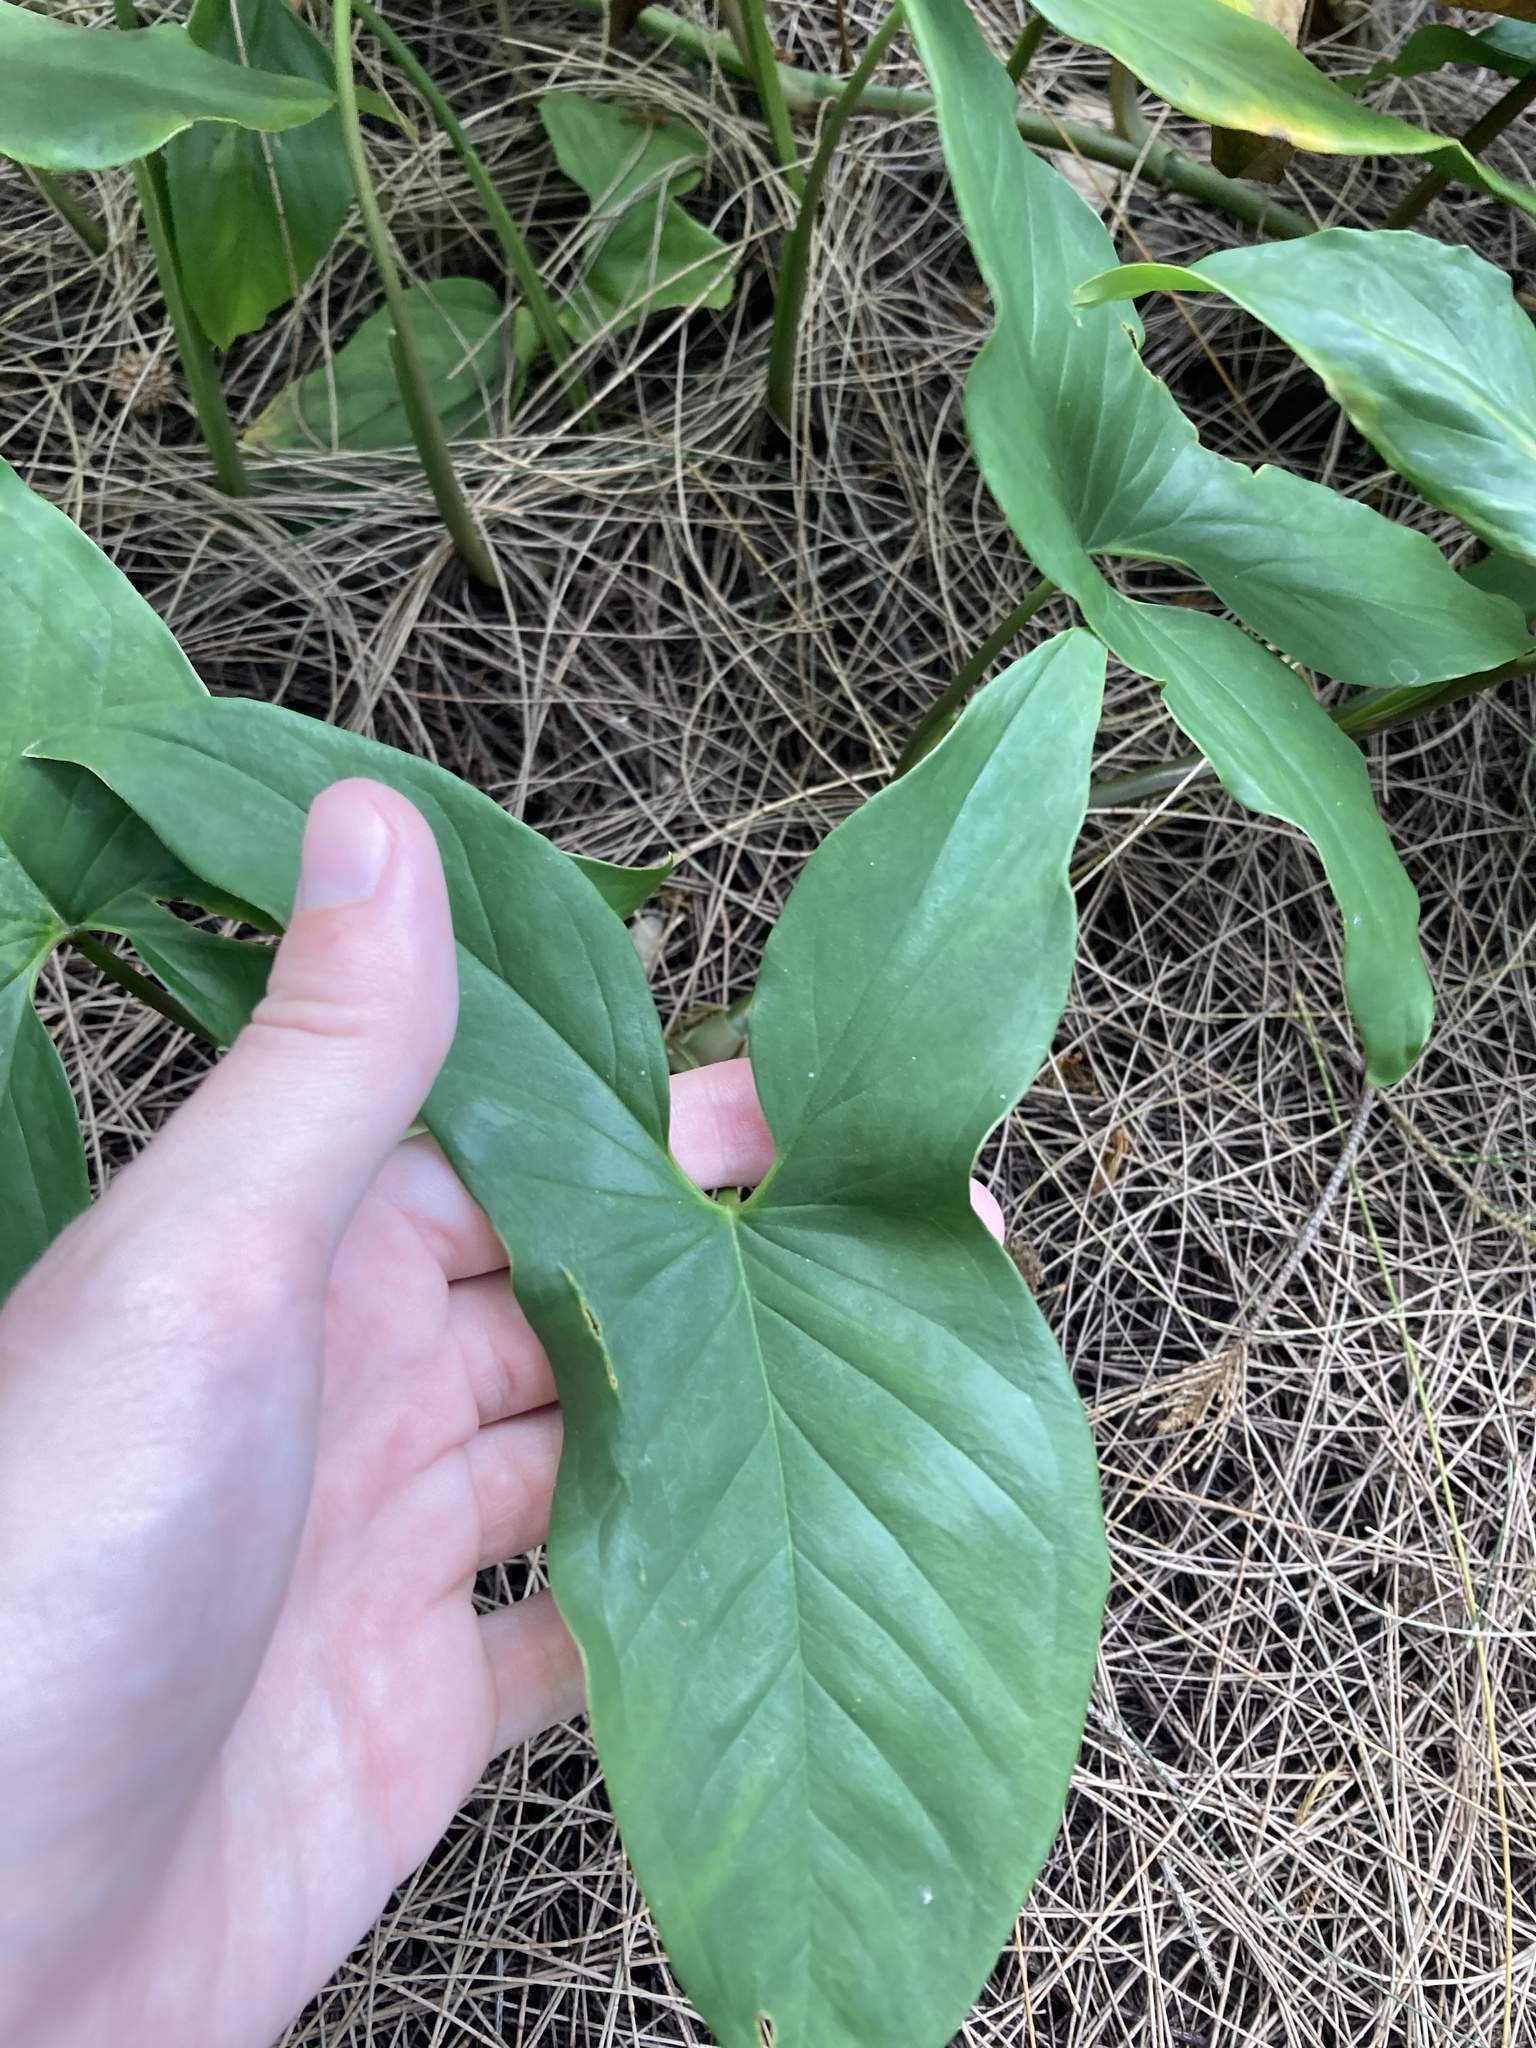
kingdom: Plantae
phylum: Tracheophyta
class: Liliopsida
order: Alismatales
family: Araceae
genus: Syngonium
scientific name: Syngonium podophyllum
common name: American evergreen
